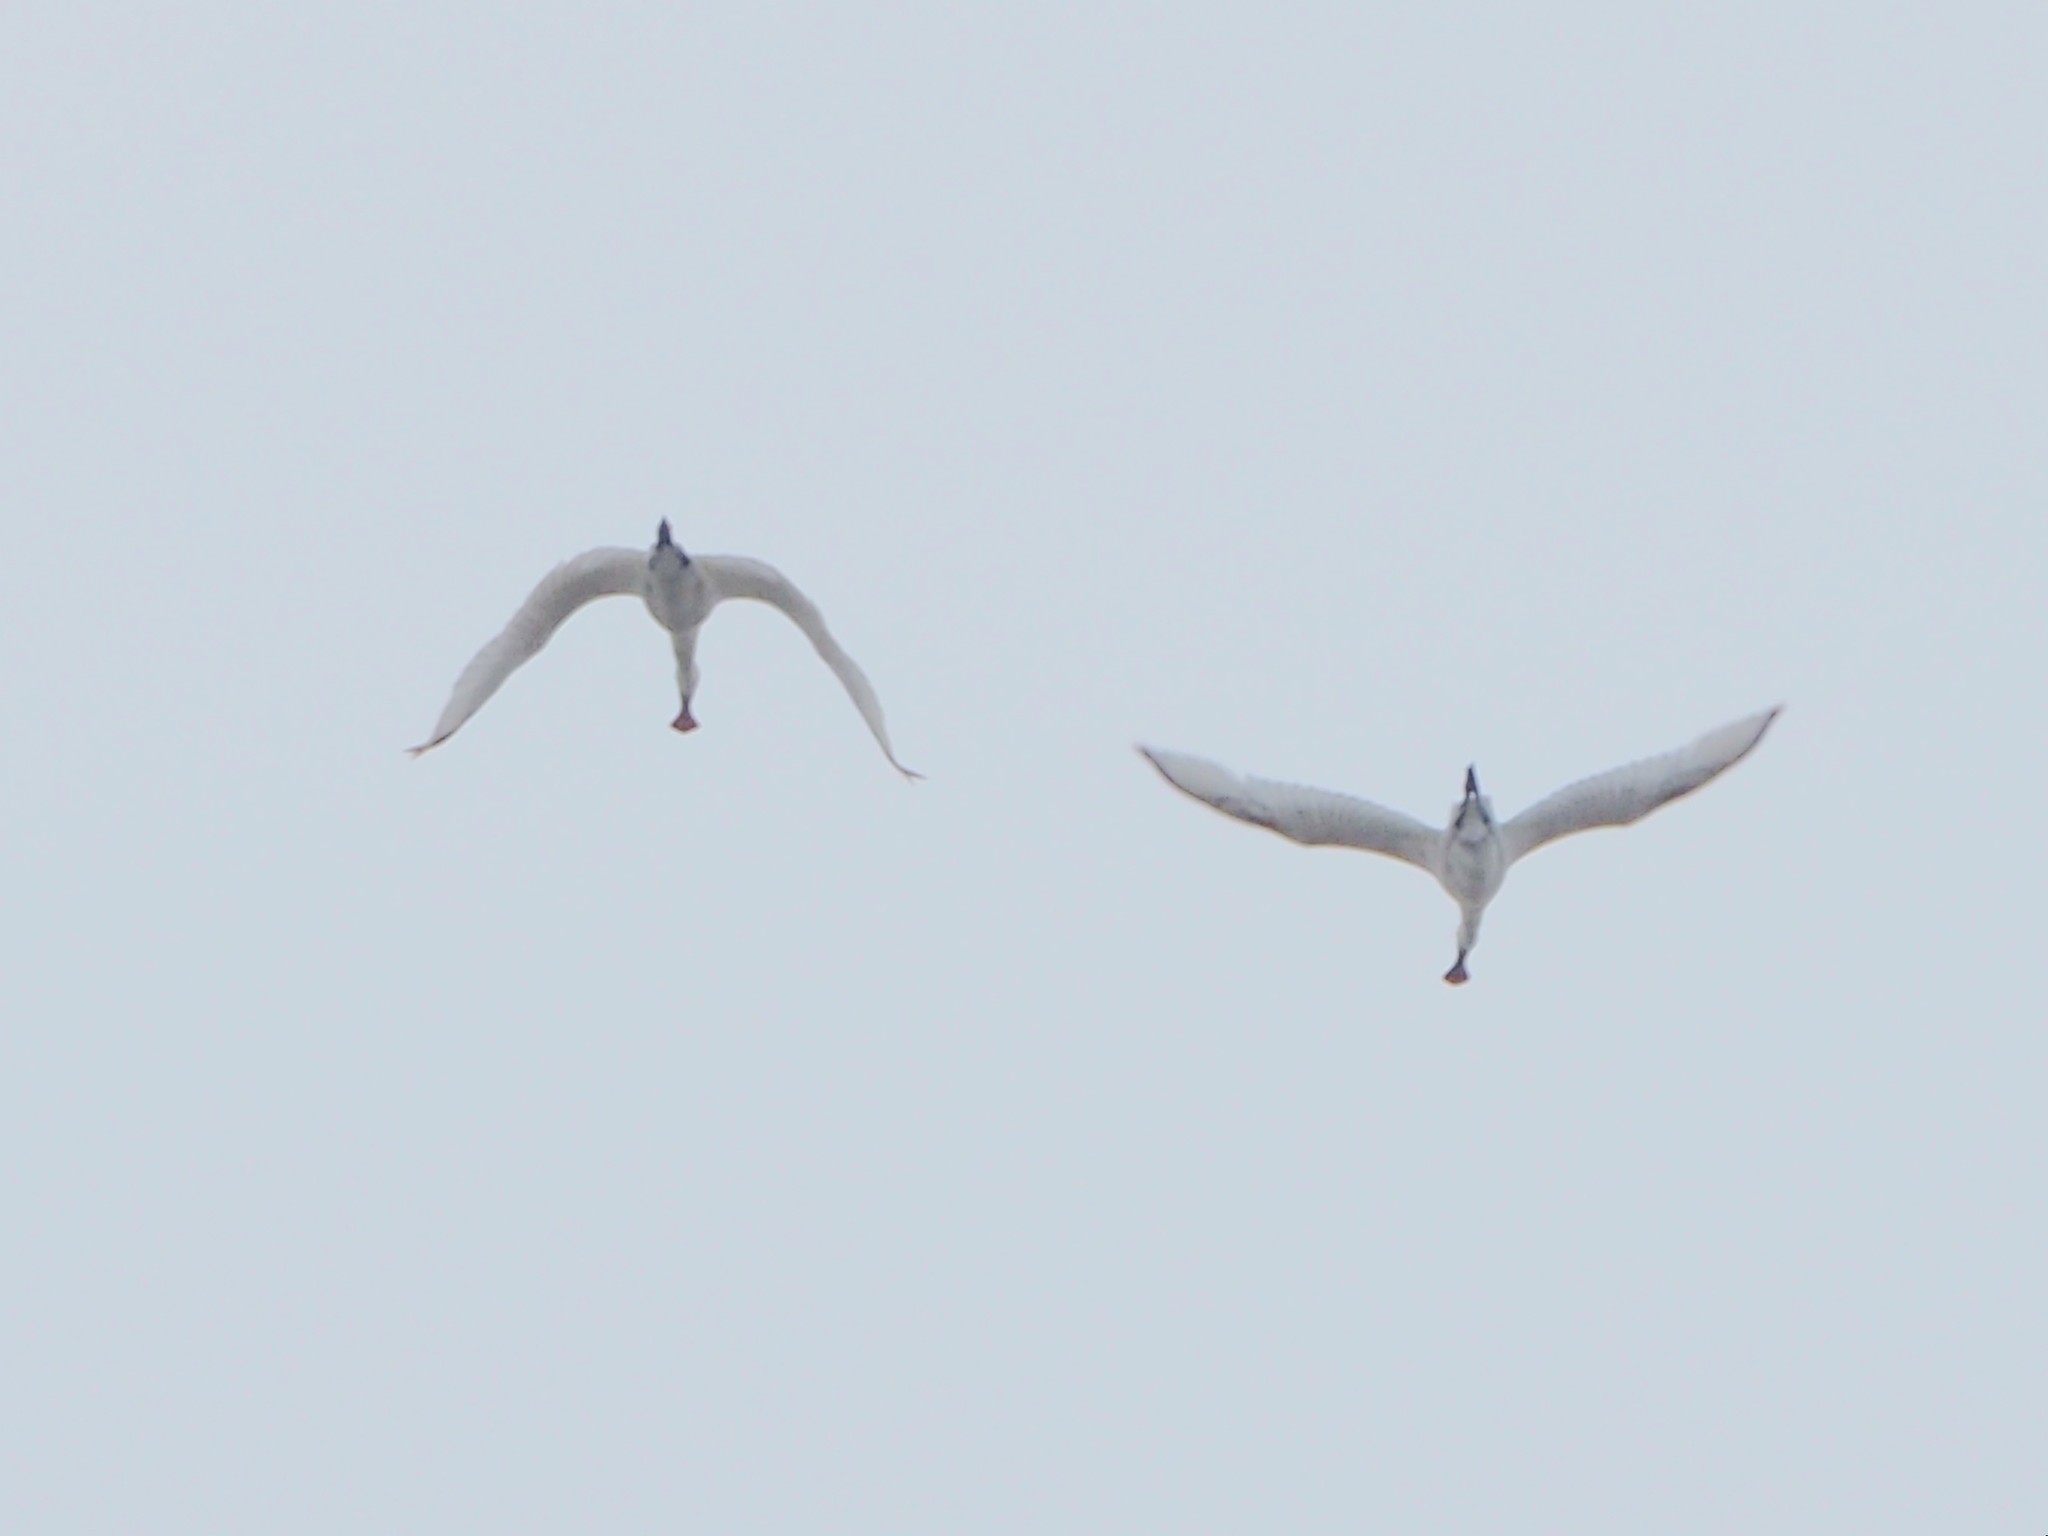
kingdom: Animalia
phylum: Chordata
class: Aves
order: Pelecaniformes
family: Threskiornithidae
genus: Platalea
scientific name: Platalea minor
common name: Black-faced spoonbill
